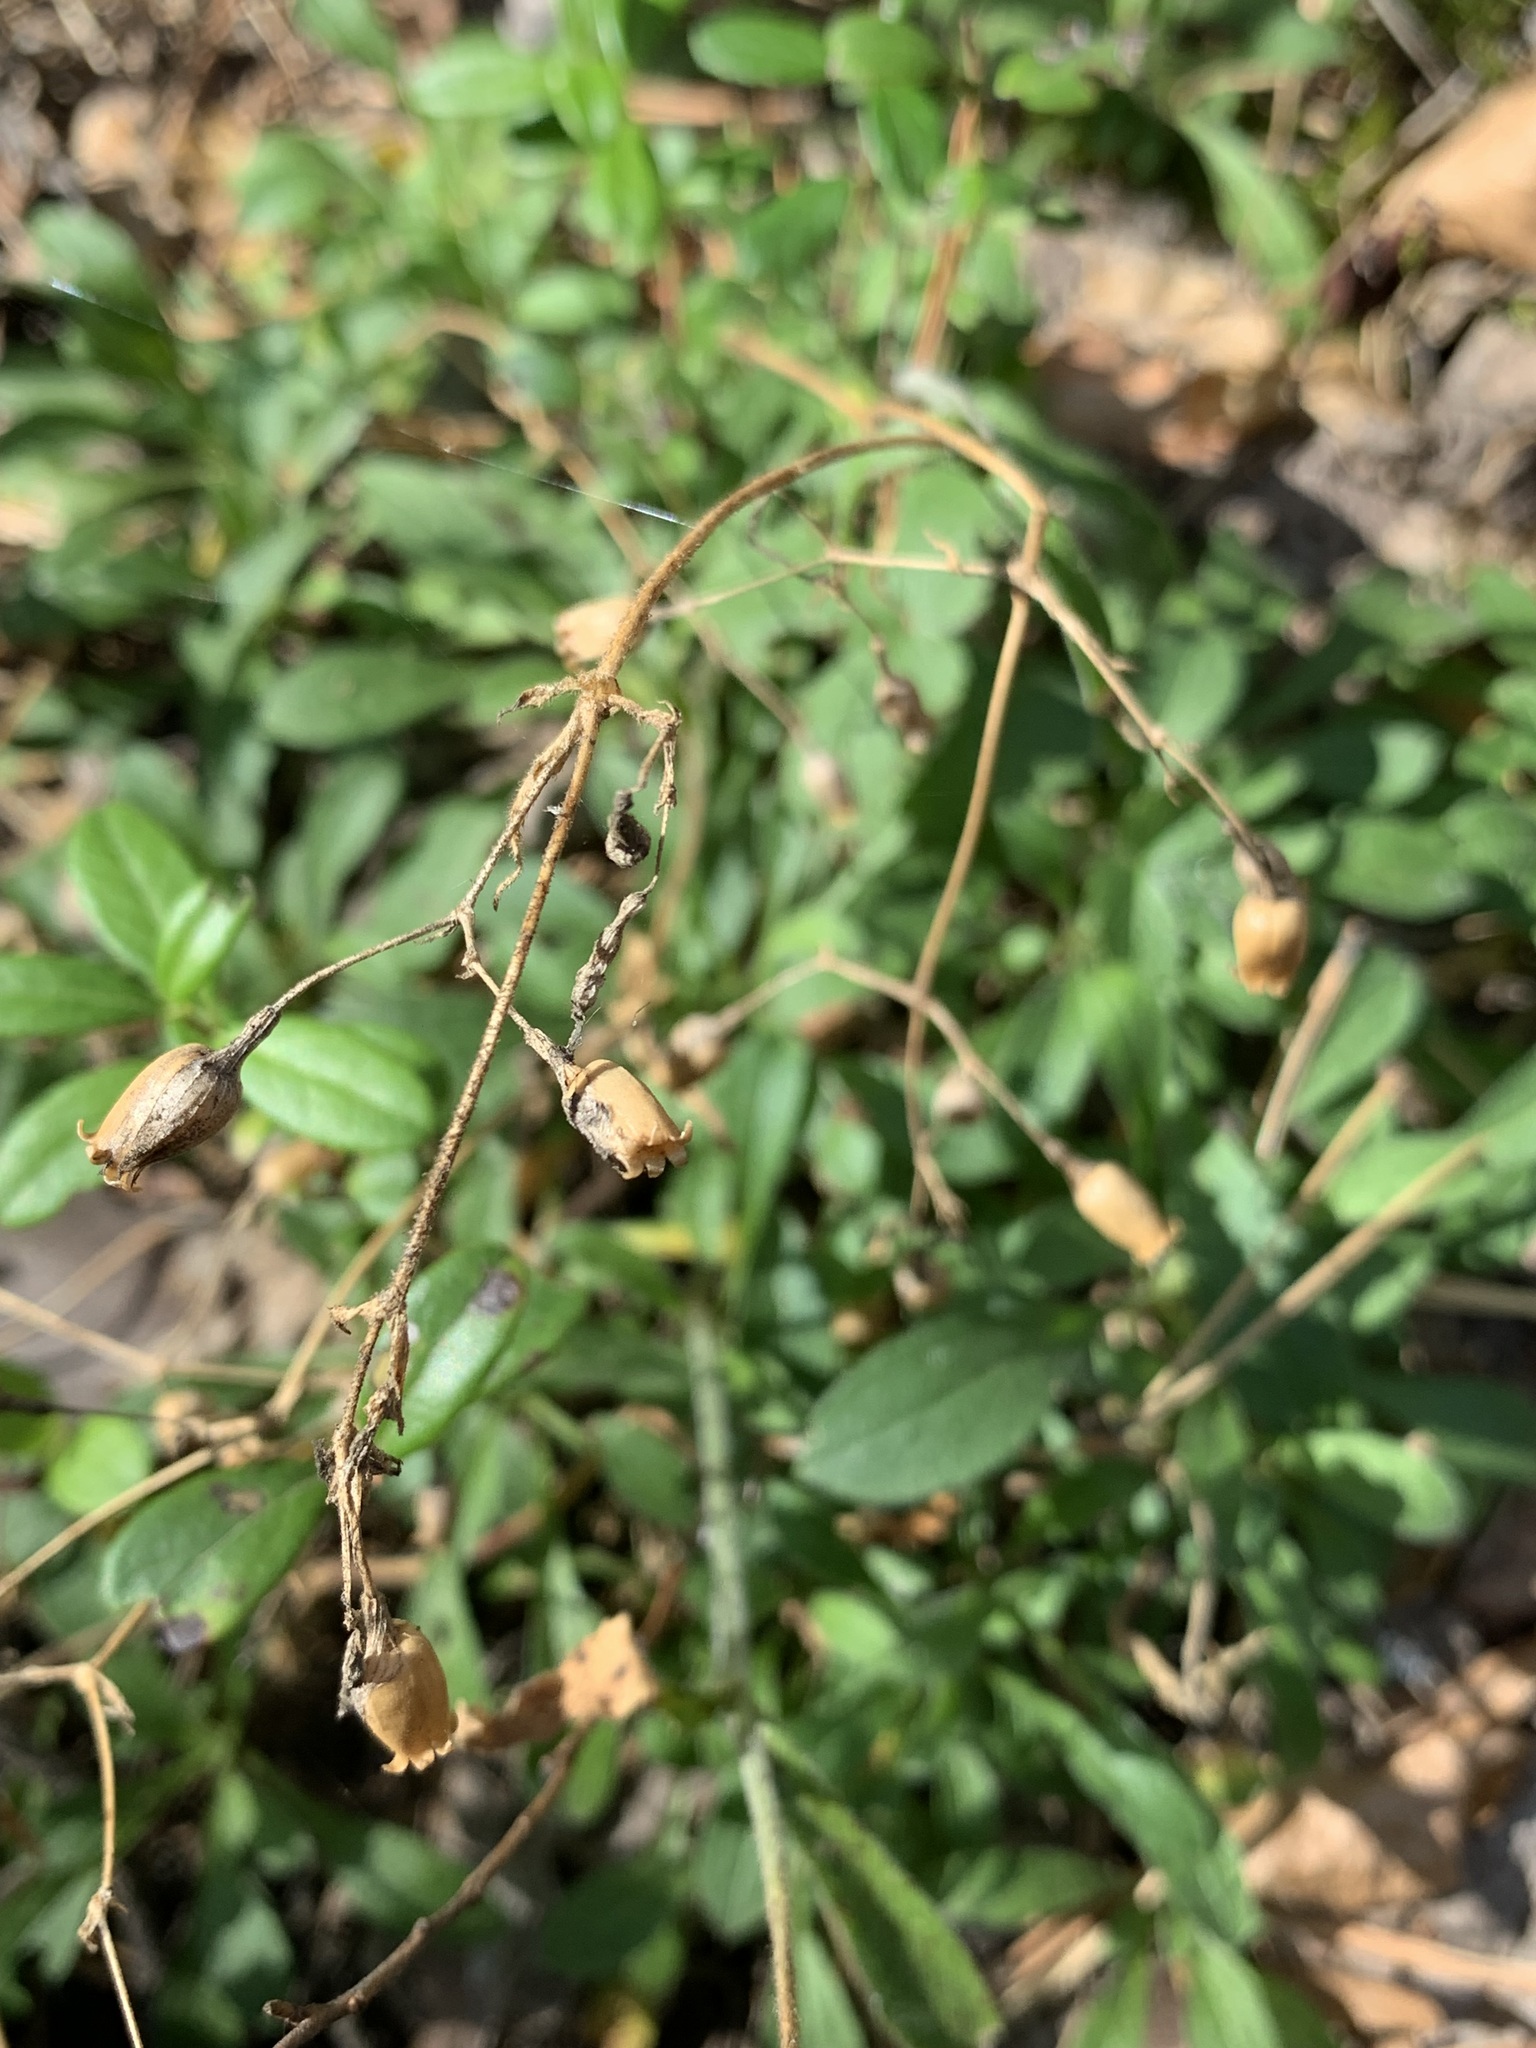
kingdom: Plantae
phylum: Tracheophyta
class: Magnoliopsida
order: Caryophyllales
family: Caryophyllaceae
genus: Silene
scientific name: Silene nutans
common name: Nottingham catchfly
